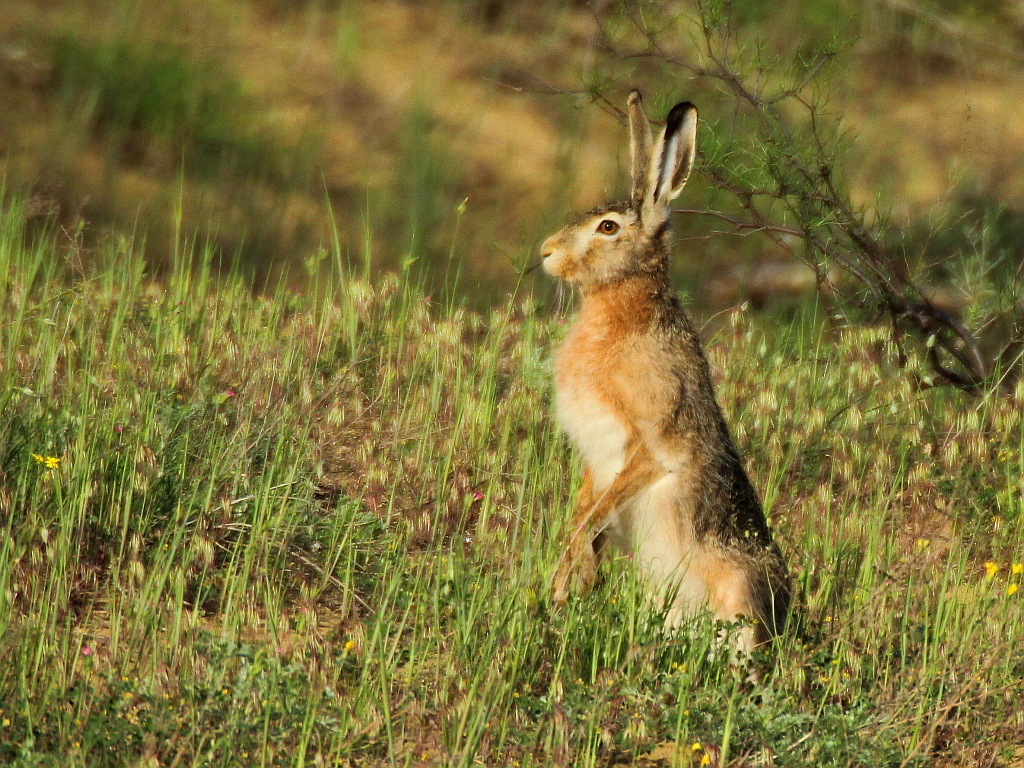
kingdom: Animalia
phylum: Chordata
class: Mammalia
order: Lagomorpha
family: Leporidae
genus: Lepus
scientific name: Lepus europaeus
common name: European hare
